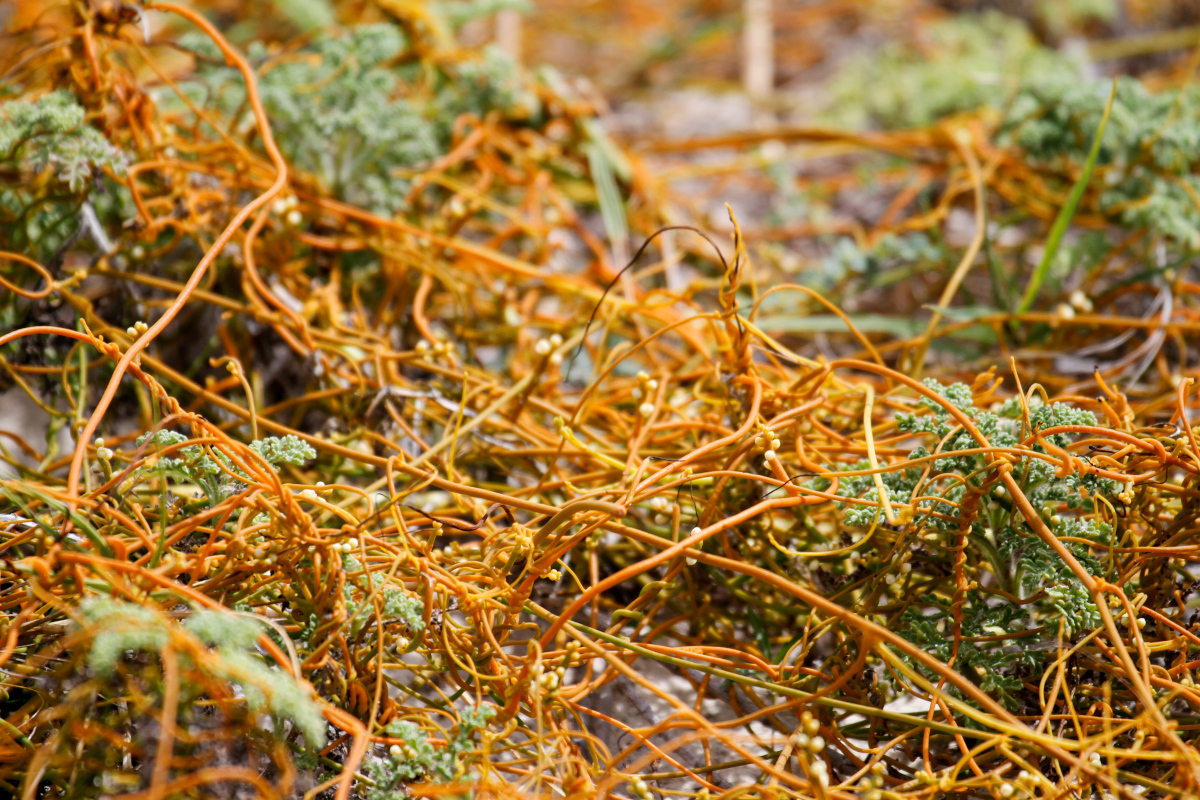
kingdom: Plantae
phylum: Tracheophyta
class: Magnoliopsida
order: Laurales
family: Lauraceae
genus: Cassytha
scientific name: Cassytha filiformis
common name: Dodder-laurel
